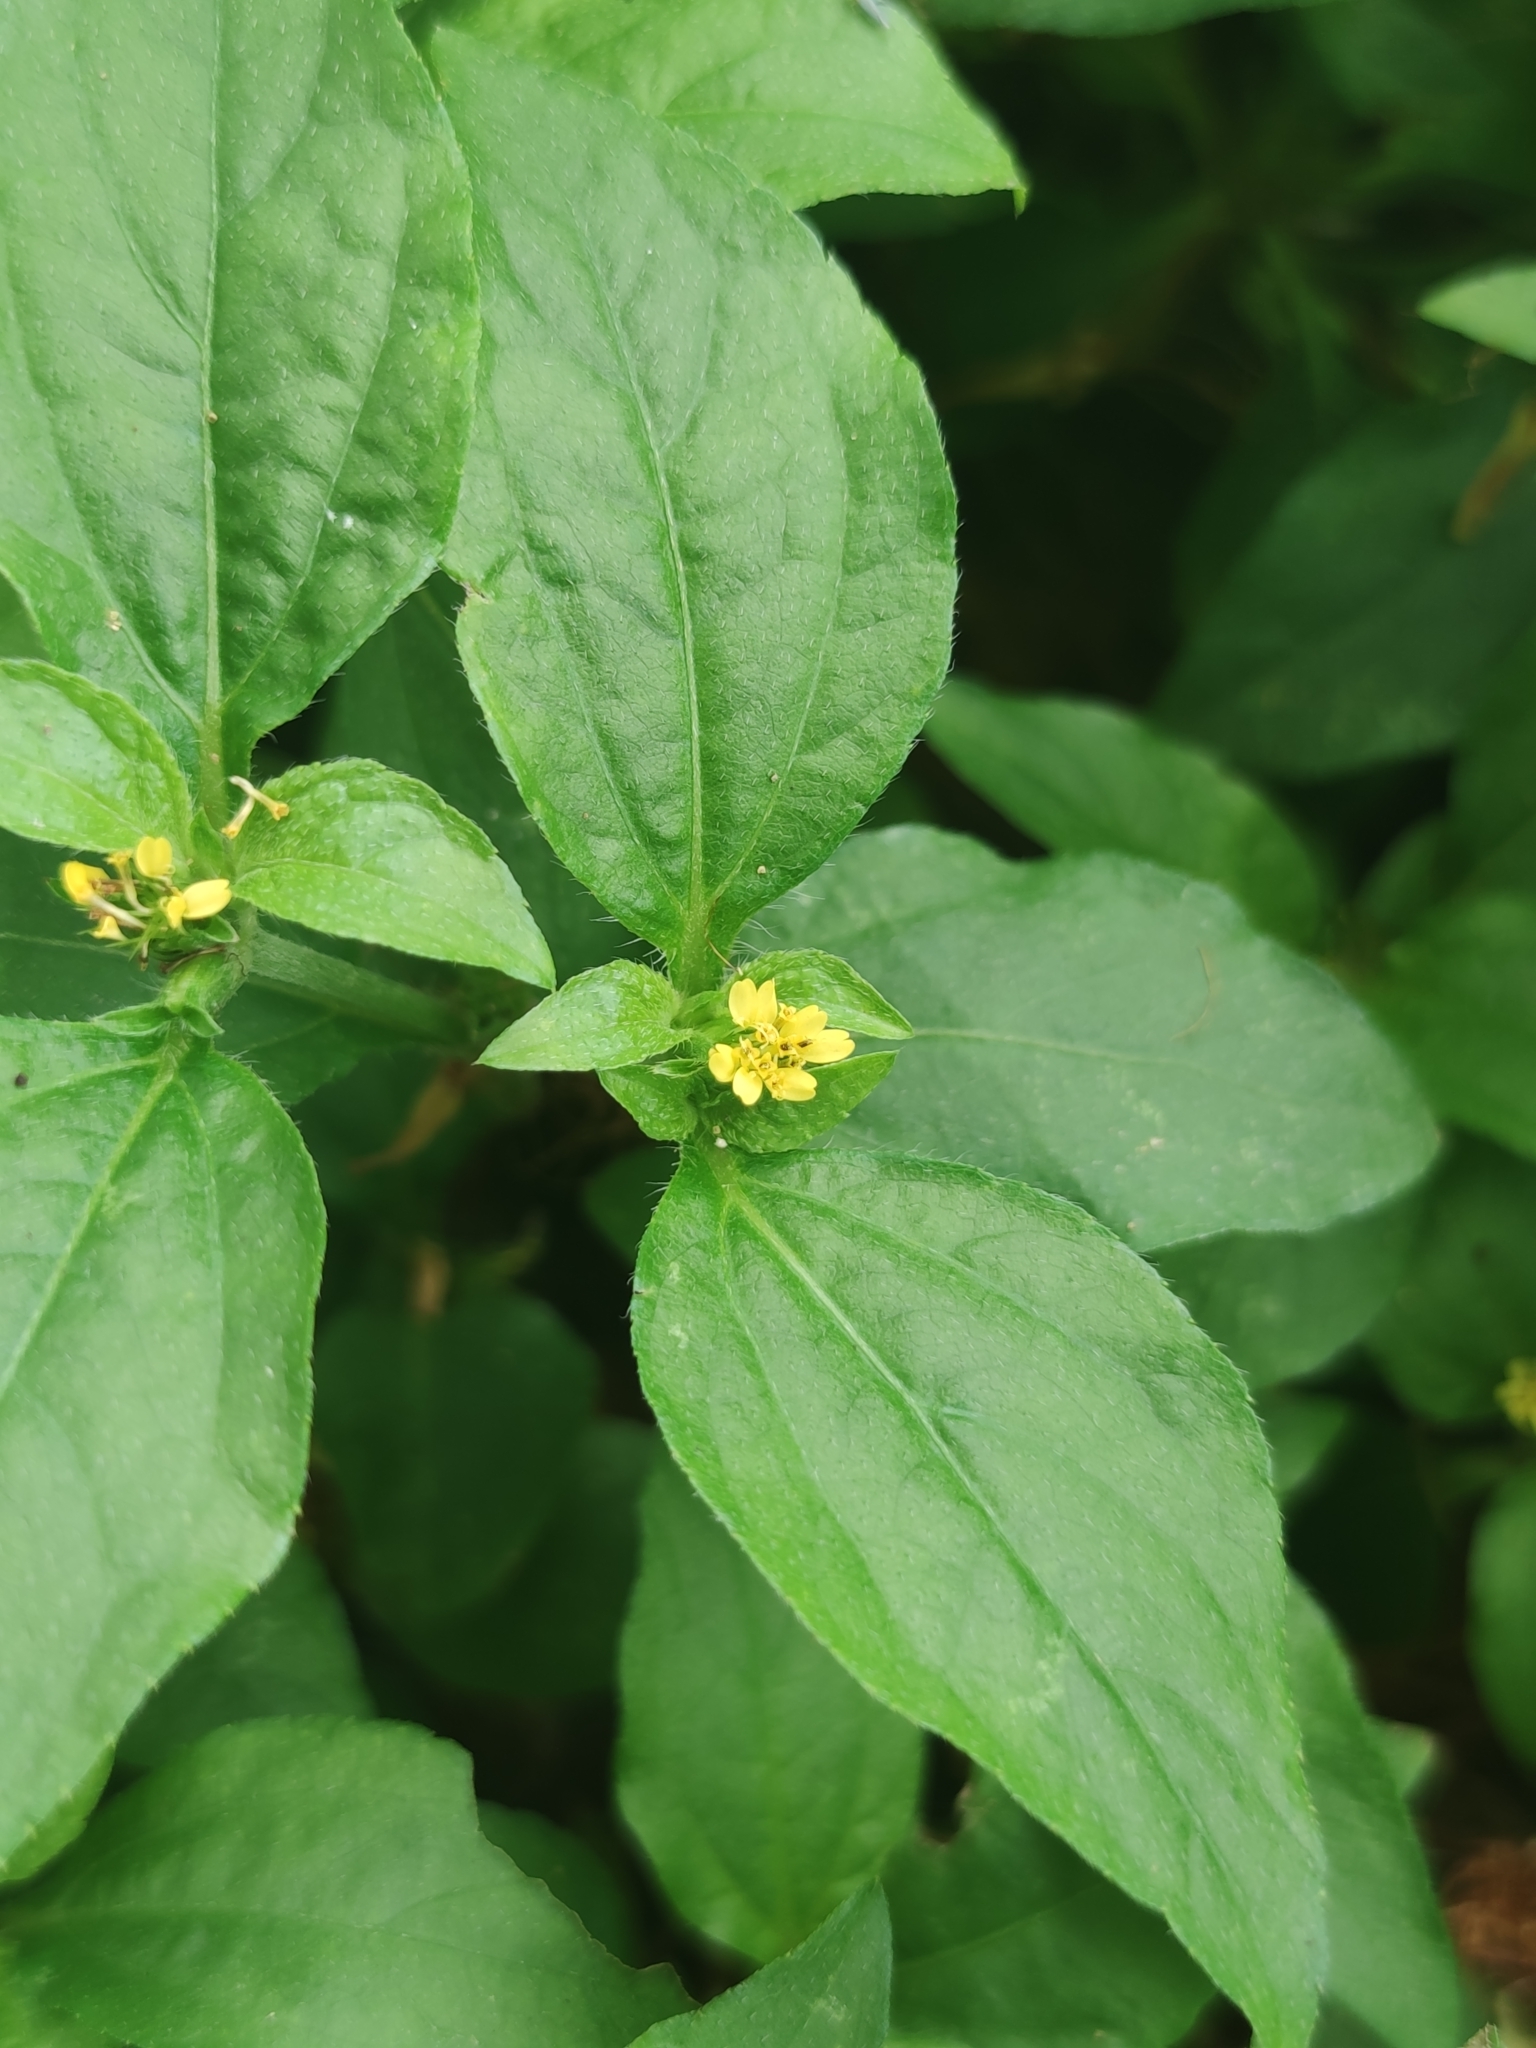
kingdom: Plantae
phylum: Tracheophyta
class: Magnoliopsida
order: Asterales
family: Asteraceae
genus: Synedrella
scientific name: Synedrella nodiflora
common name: Nodeweed
